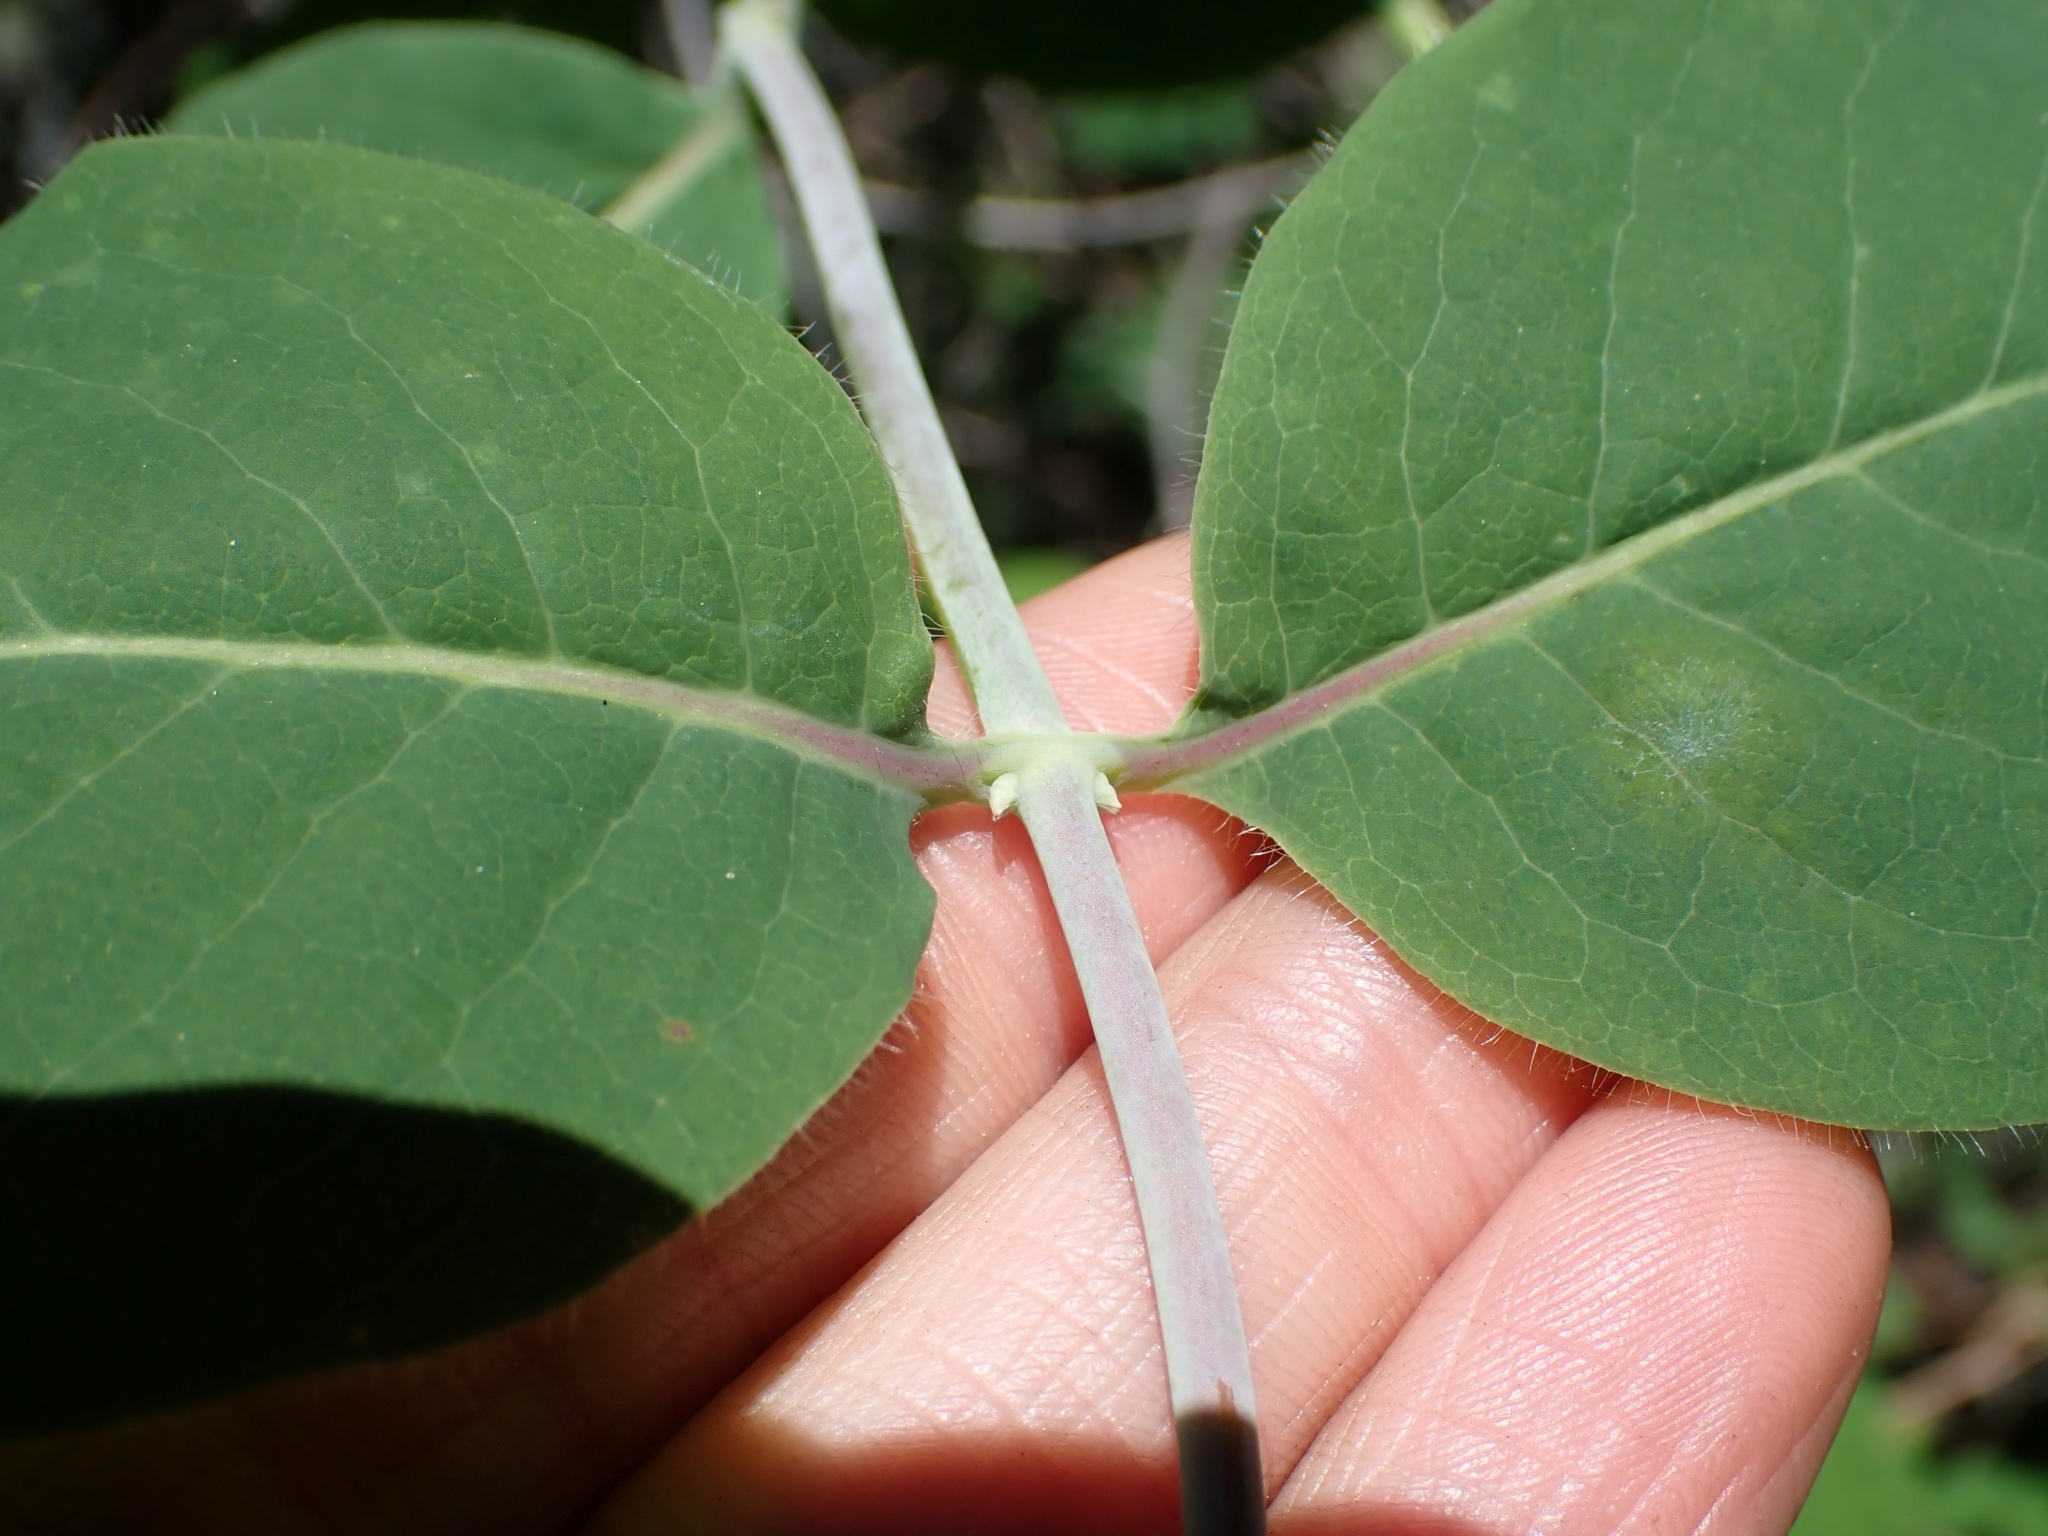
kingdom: Plantae
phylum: Tracheophyta
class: Magnoliopsida
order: Dipsacales
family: Caprifoliaceae
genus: Lonicera
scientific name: Lonicera ciliosa
